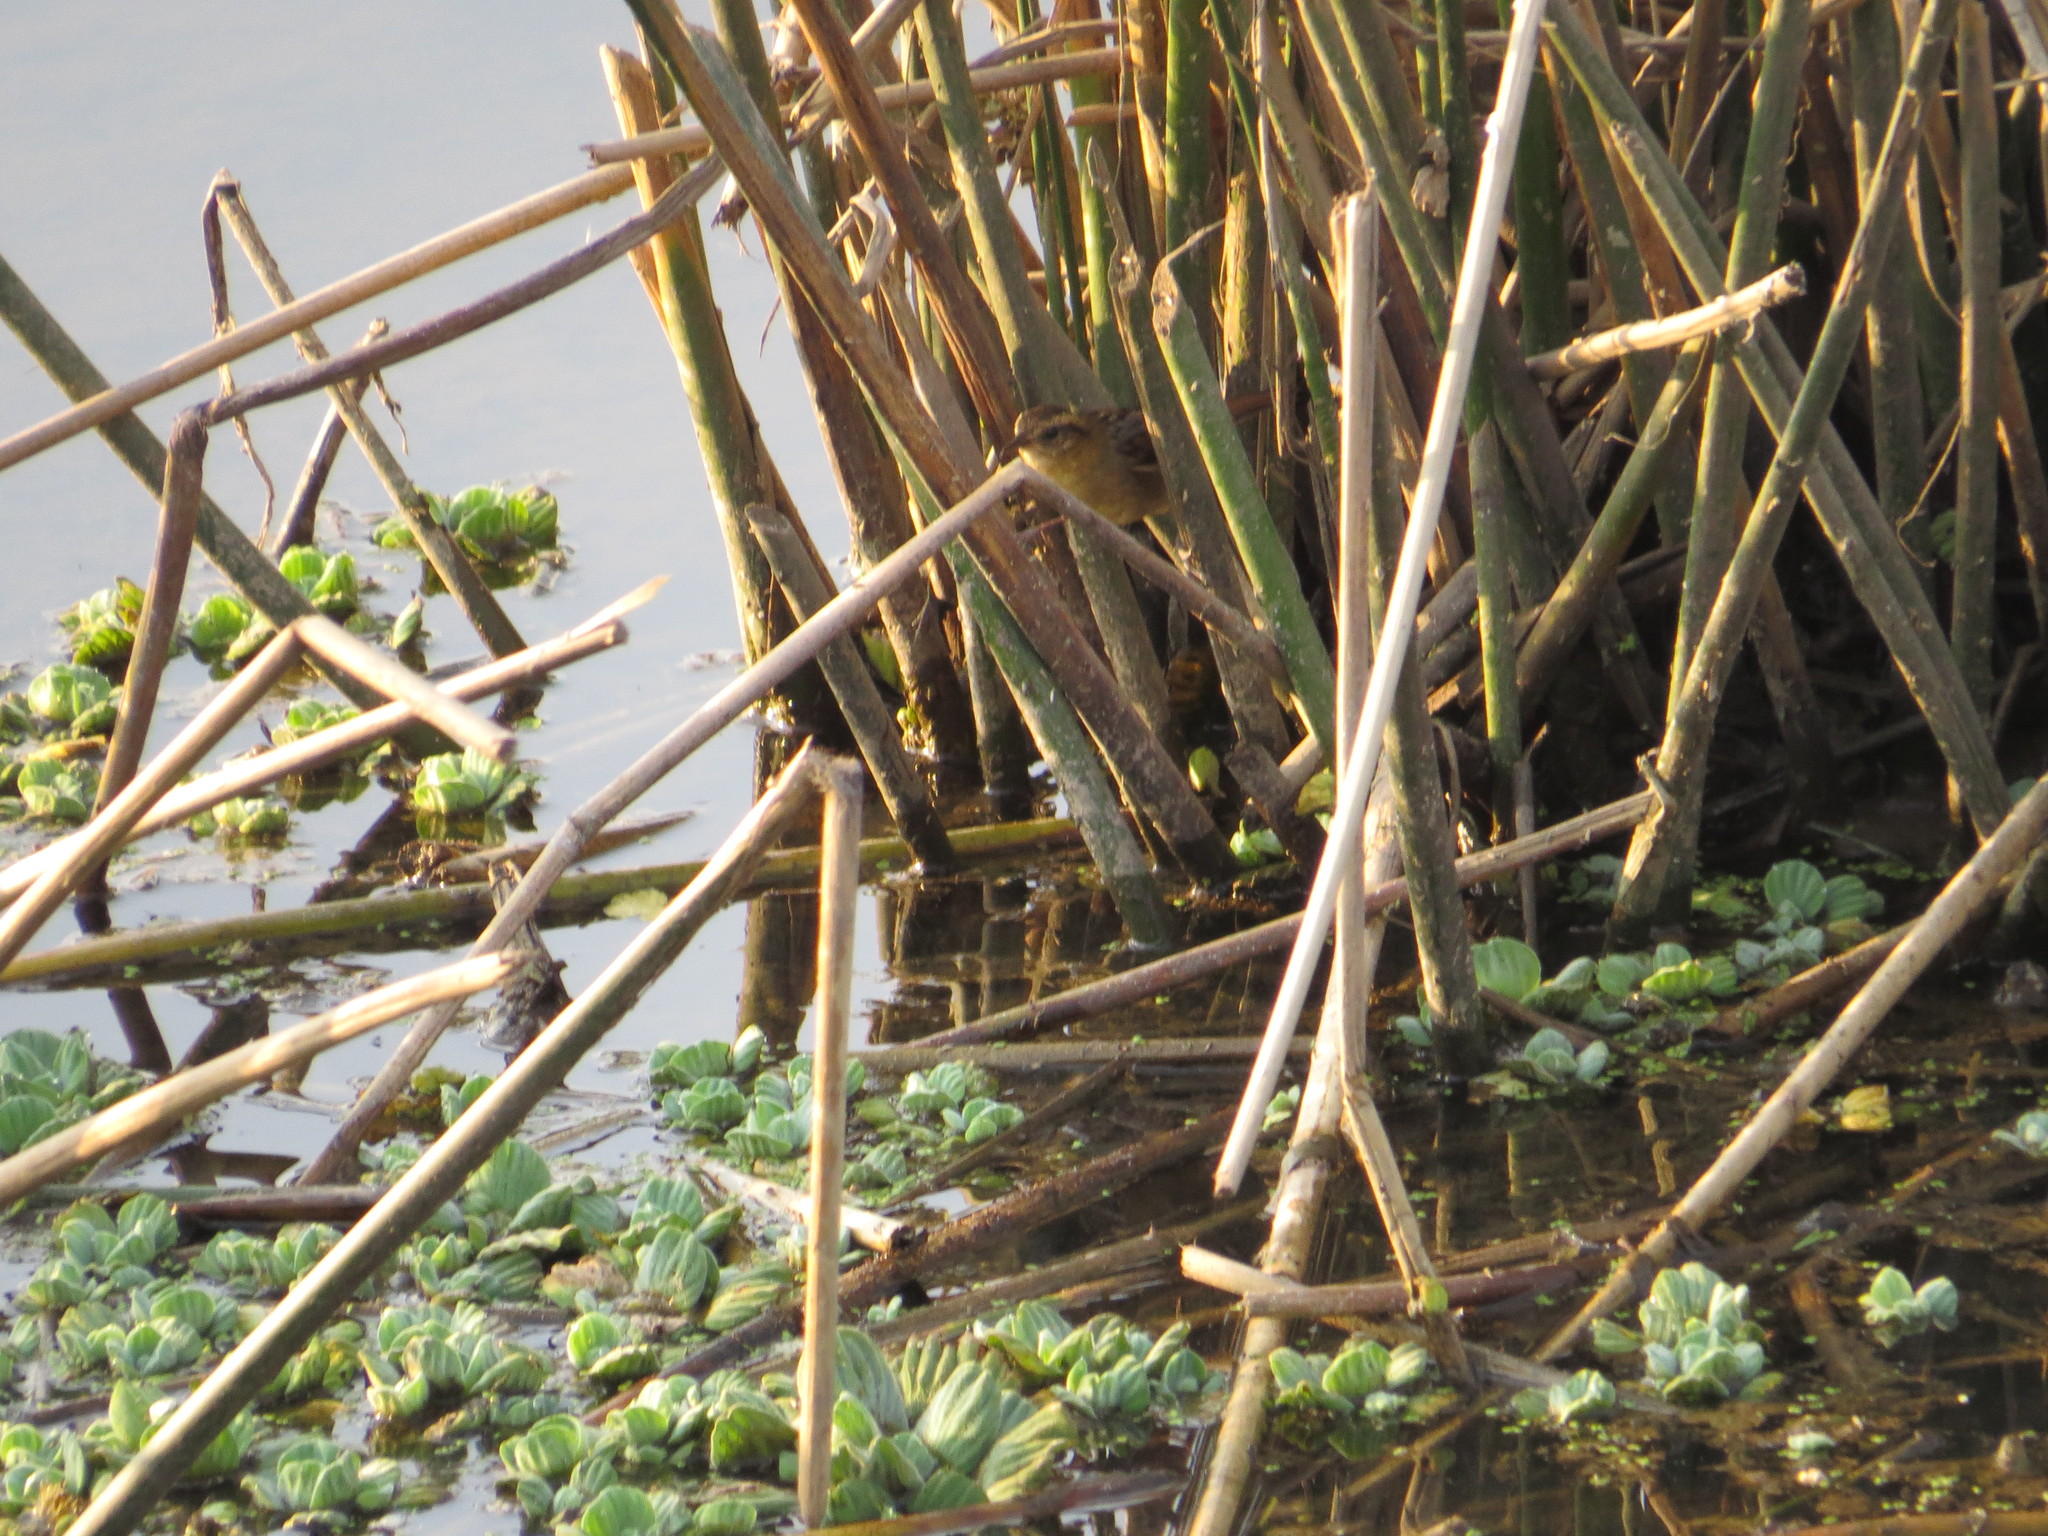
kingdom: Animalia
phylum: Chordata
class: Aves
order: Passeriformes
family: Furnariidae
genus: Phleocryptes
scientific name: Phleocryptes melanops
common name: Wren-like rushbird
